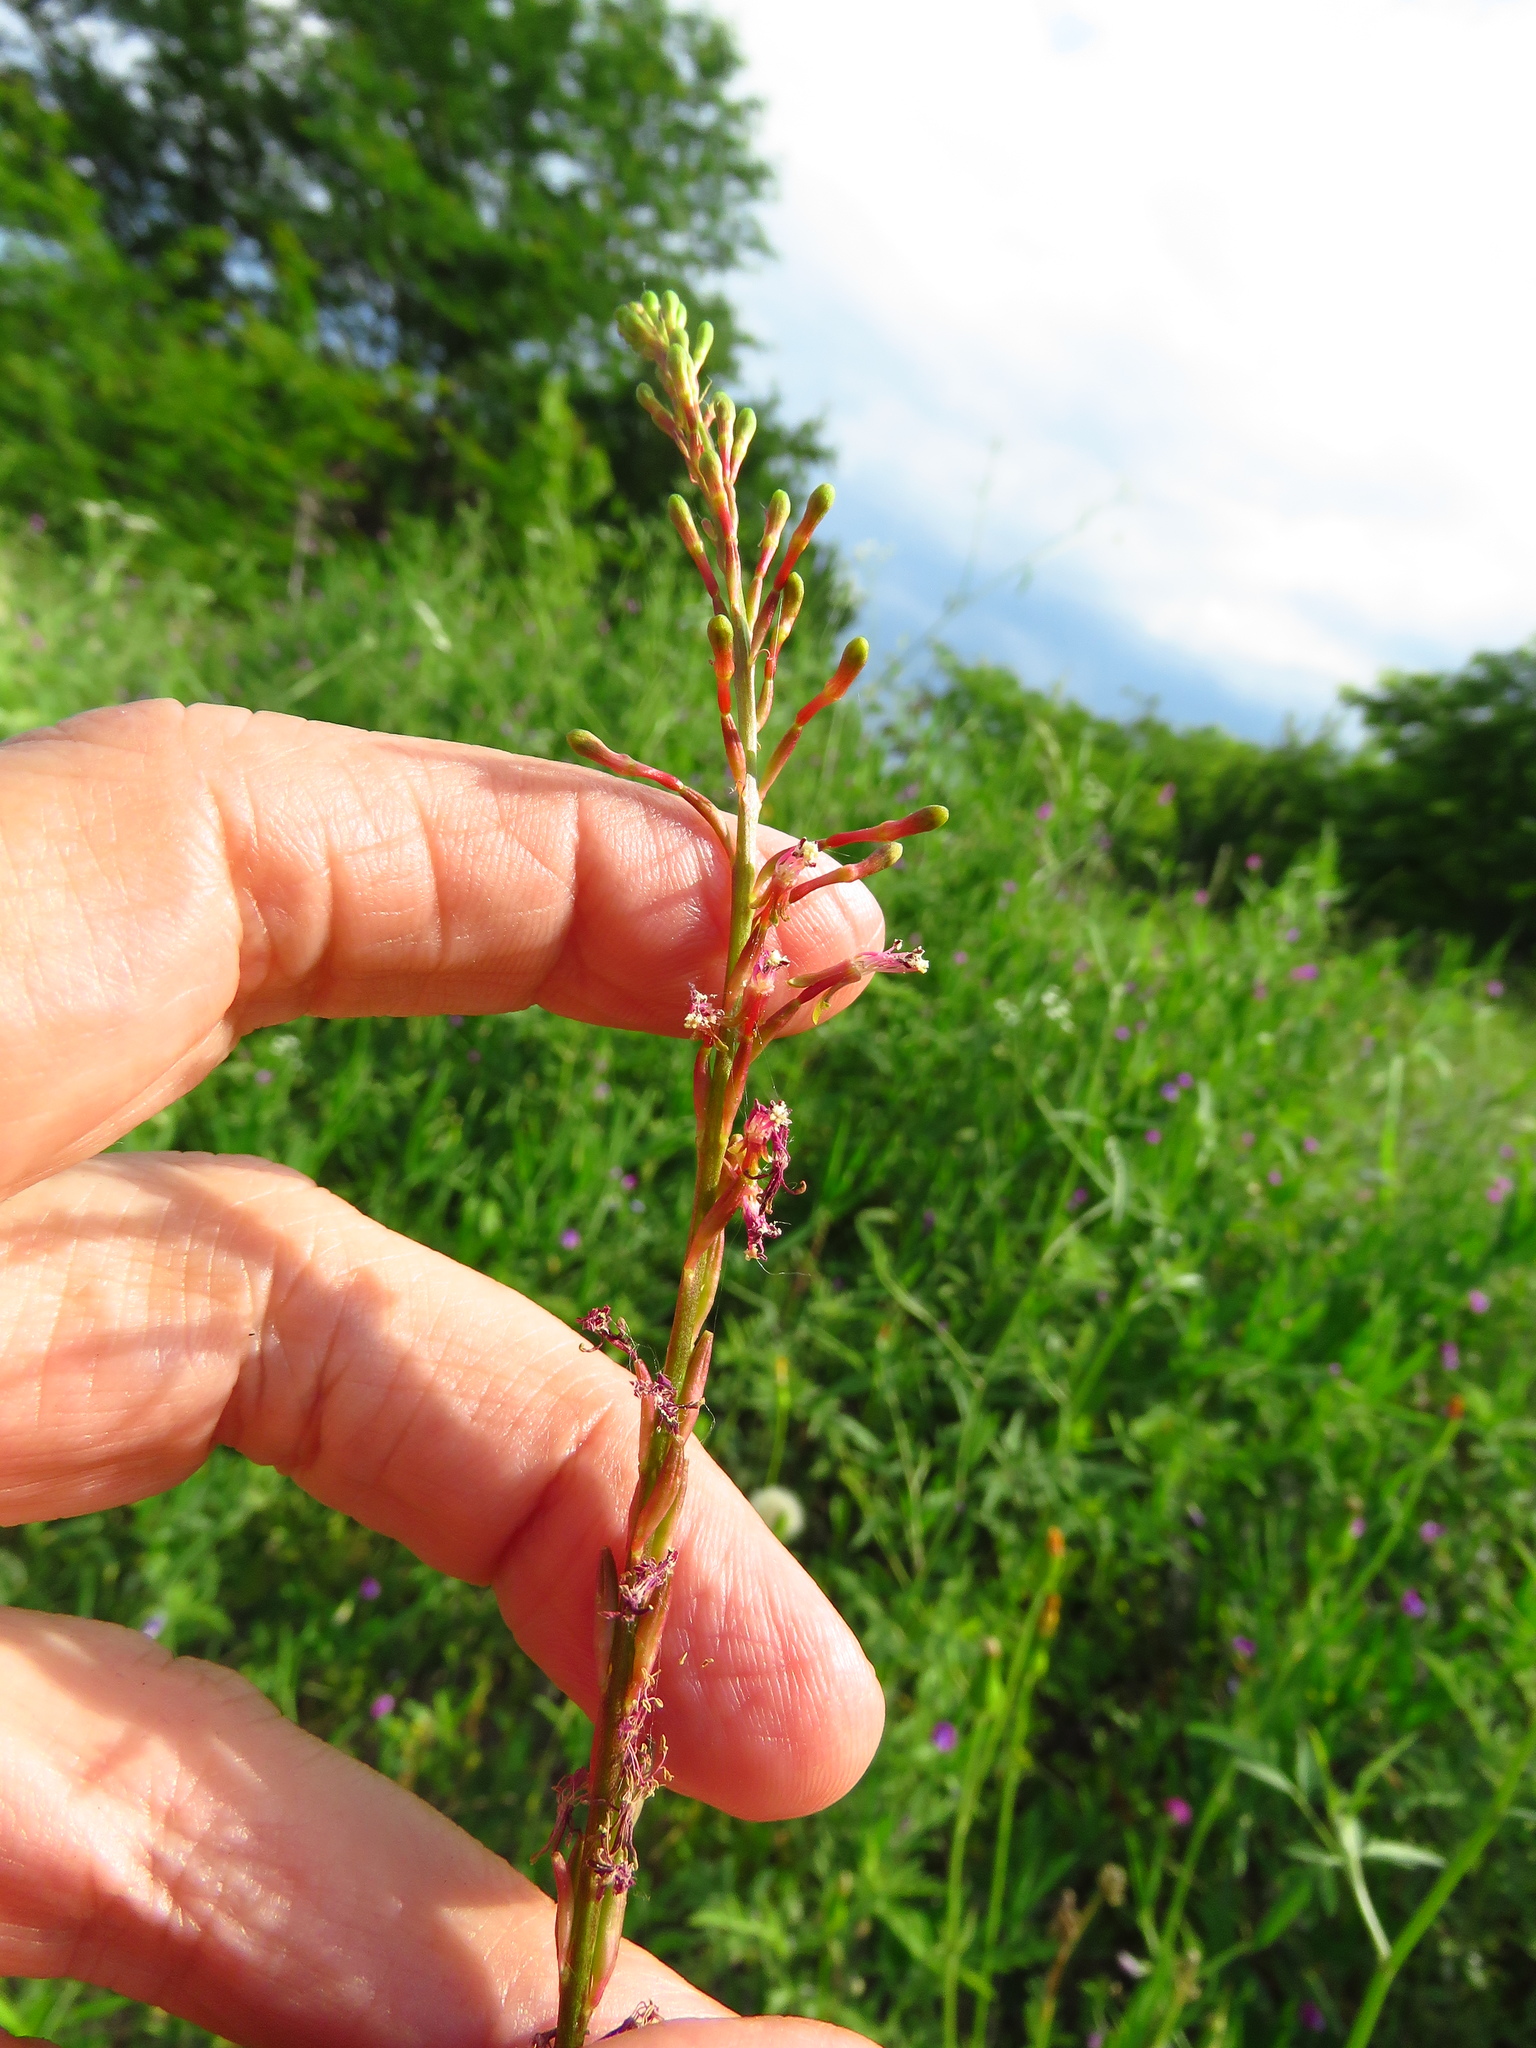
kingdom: Plantae
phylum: Tracheophyta
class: Magnoliopsida
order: Myrtales
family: Onagraceae
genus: Oenothera
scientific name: Oenothera curtiflora
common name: Velvetweed
